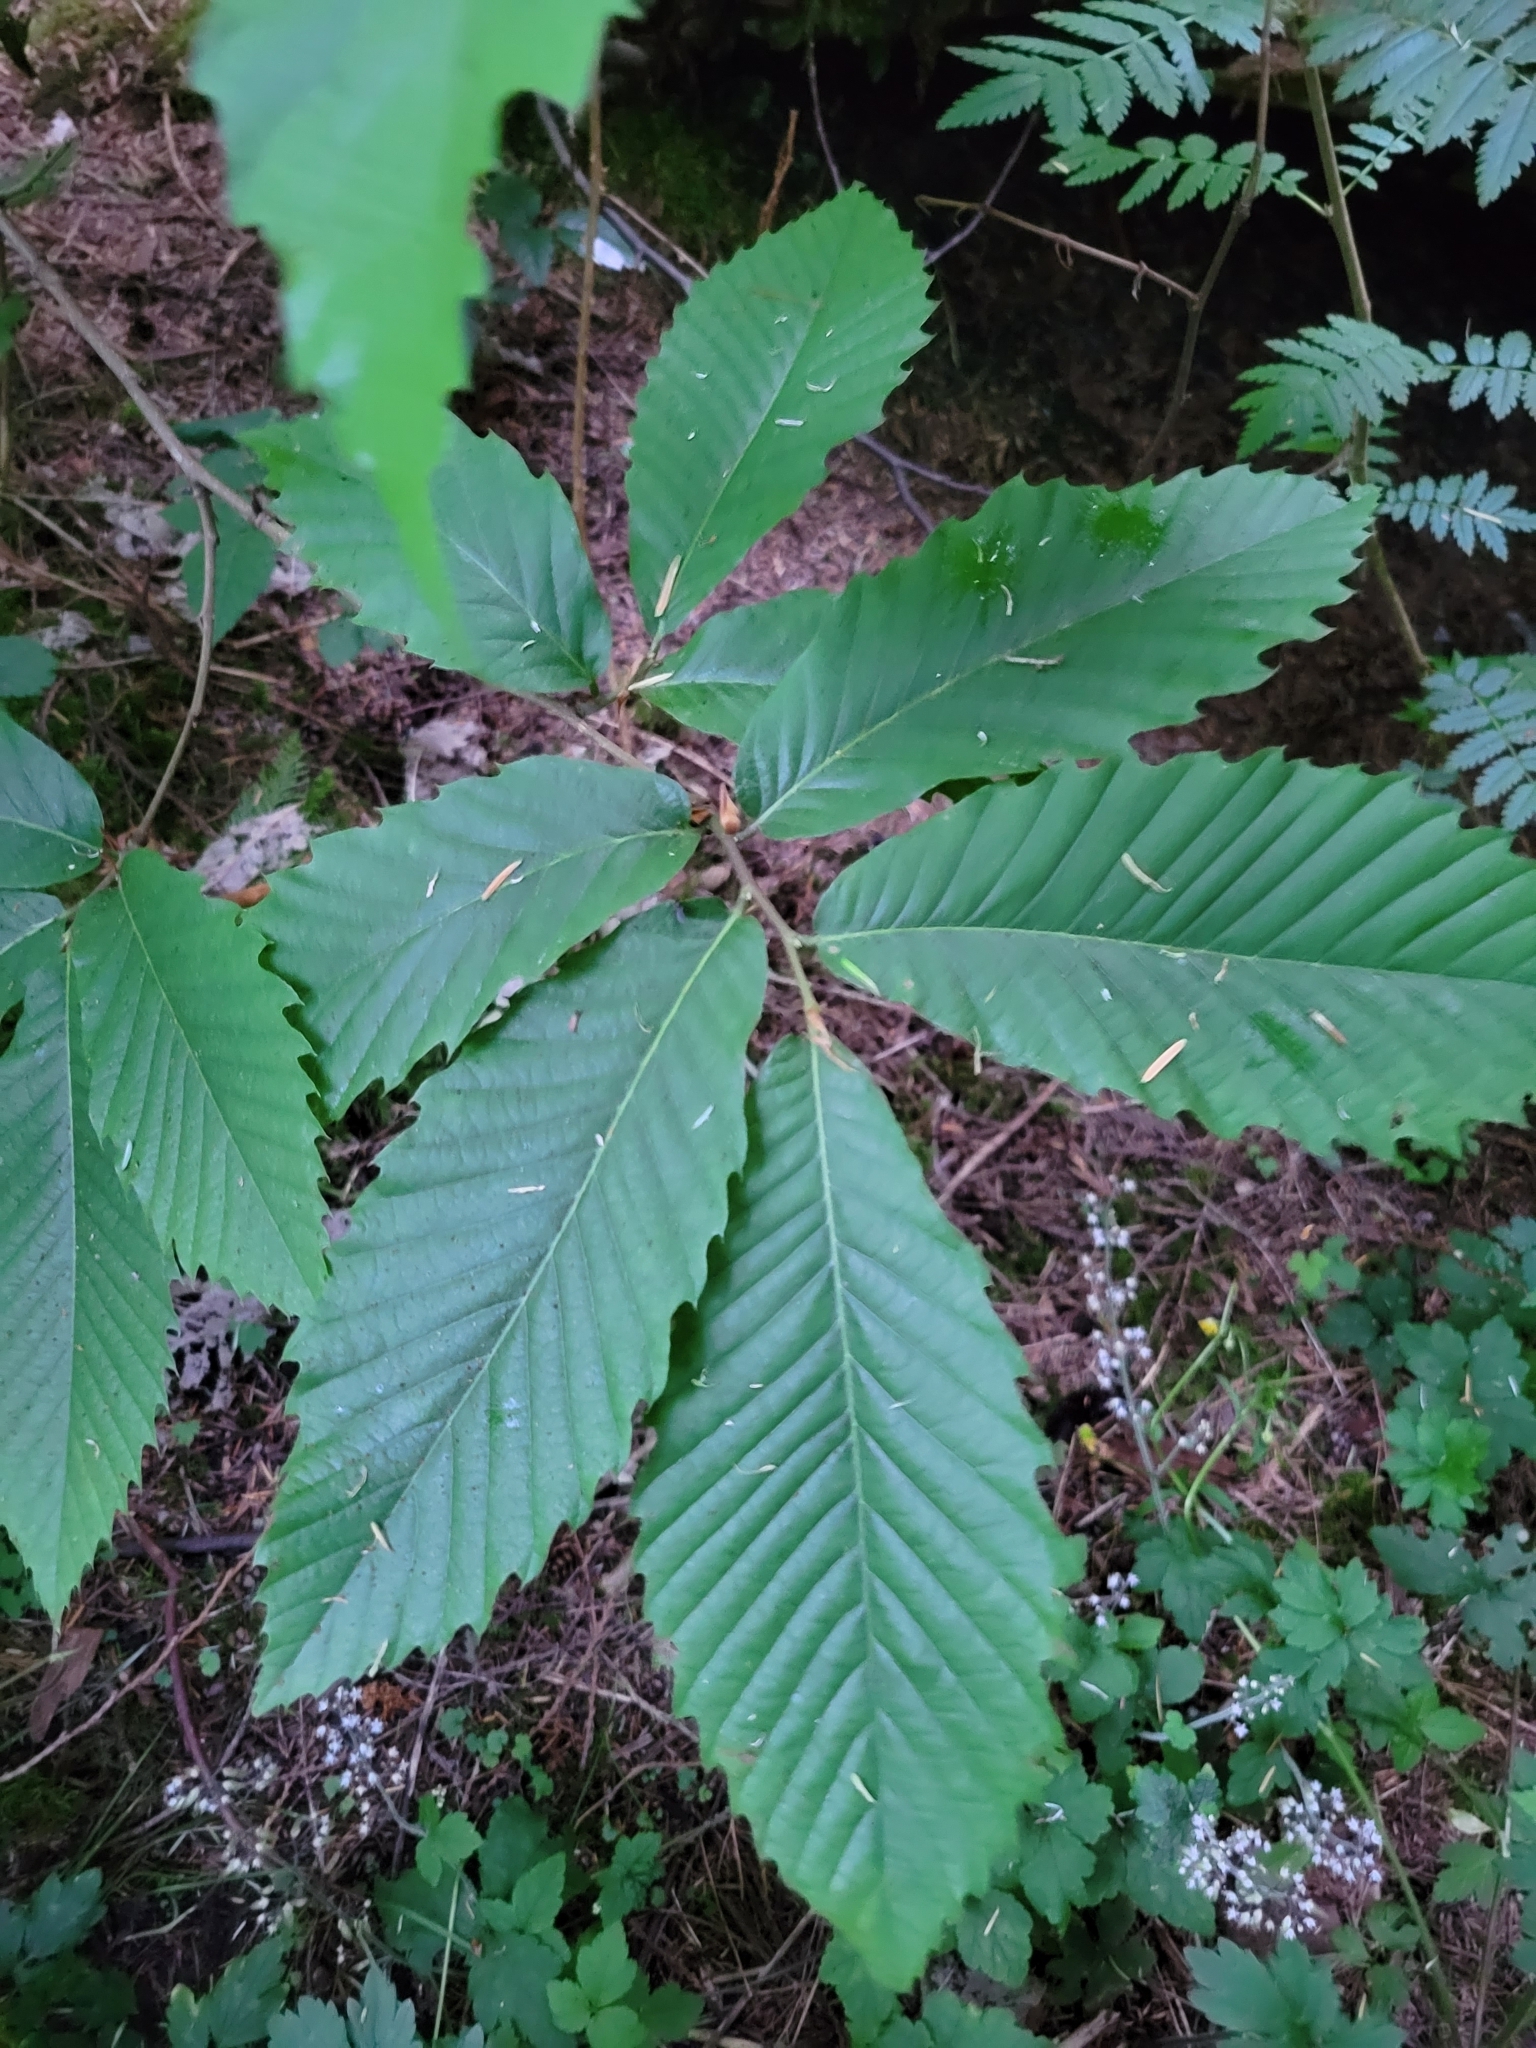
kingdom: Plantae
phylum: Tracheophyta
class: Magnoliopsida
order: Fagales
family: Fagaceae
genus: Castanea
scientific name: Castanea sativa
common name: Sweet chestnut
